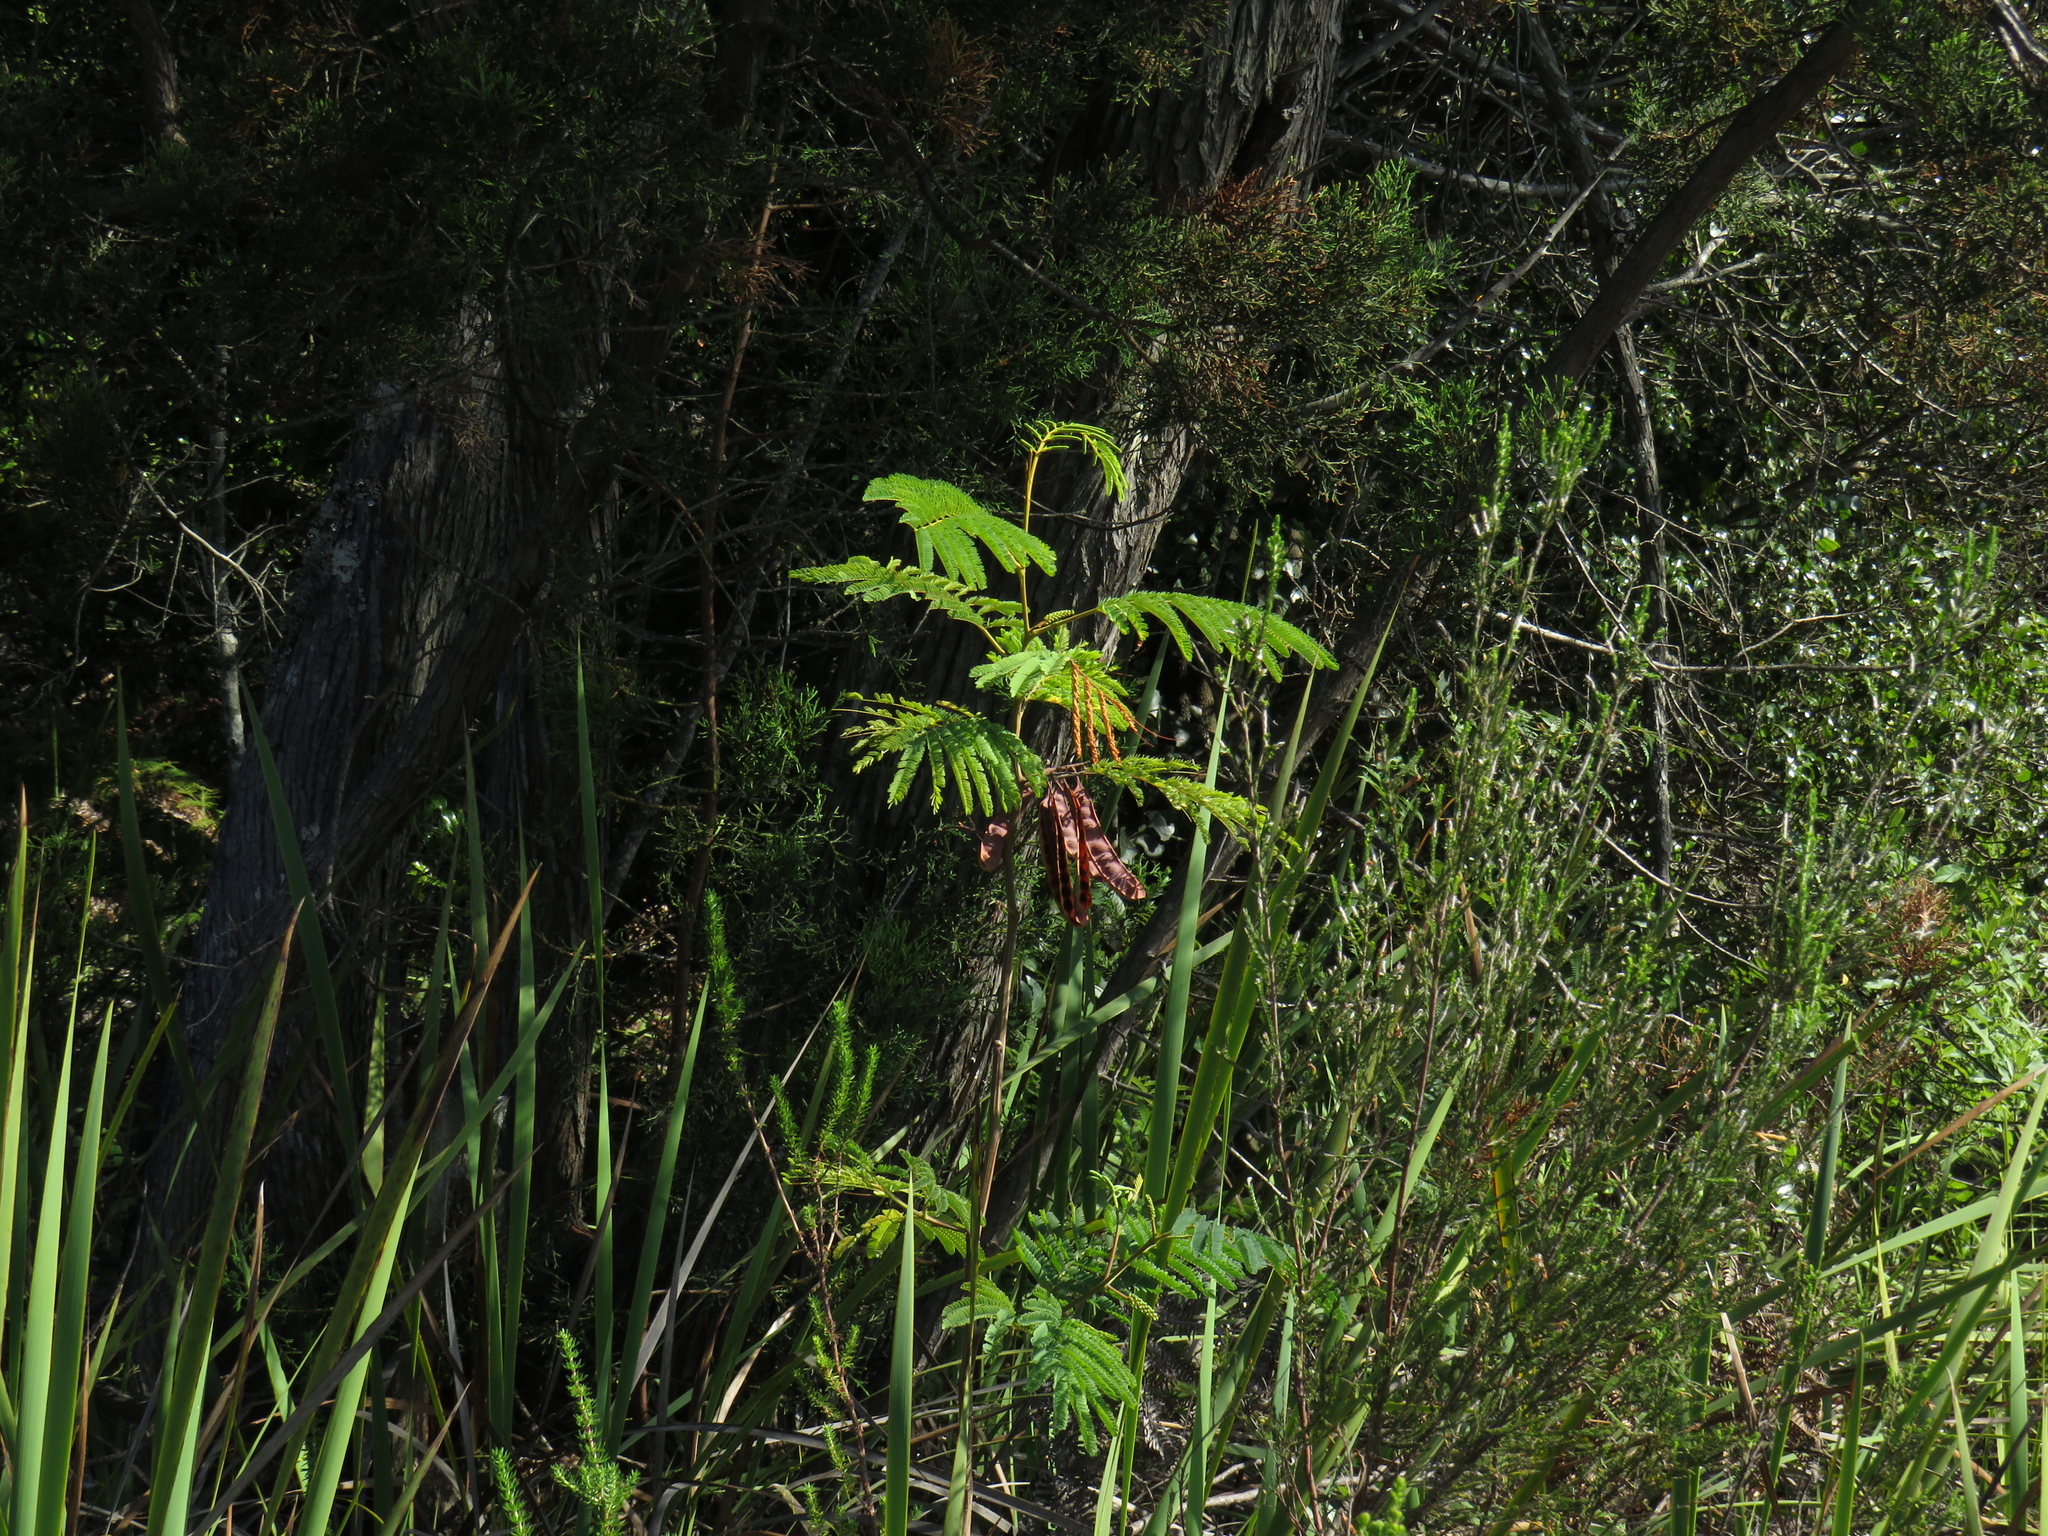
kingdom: Plantae
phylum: Tracheophyta
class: Magnoliopsida
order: Fabales
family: Fabaceae
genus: Paraserianthes
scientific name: Paraserianthes lophantha
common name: Plume albizia
